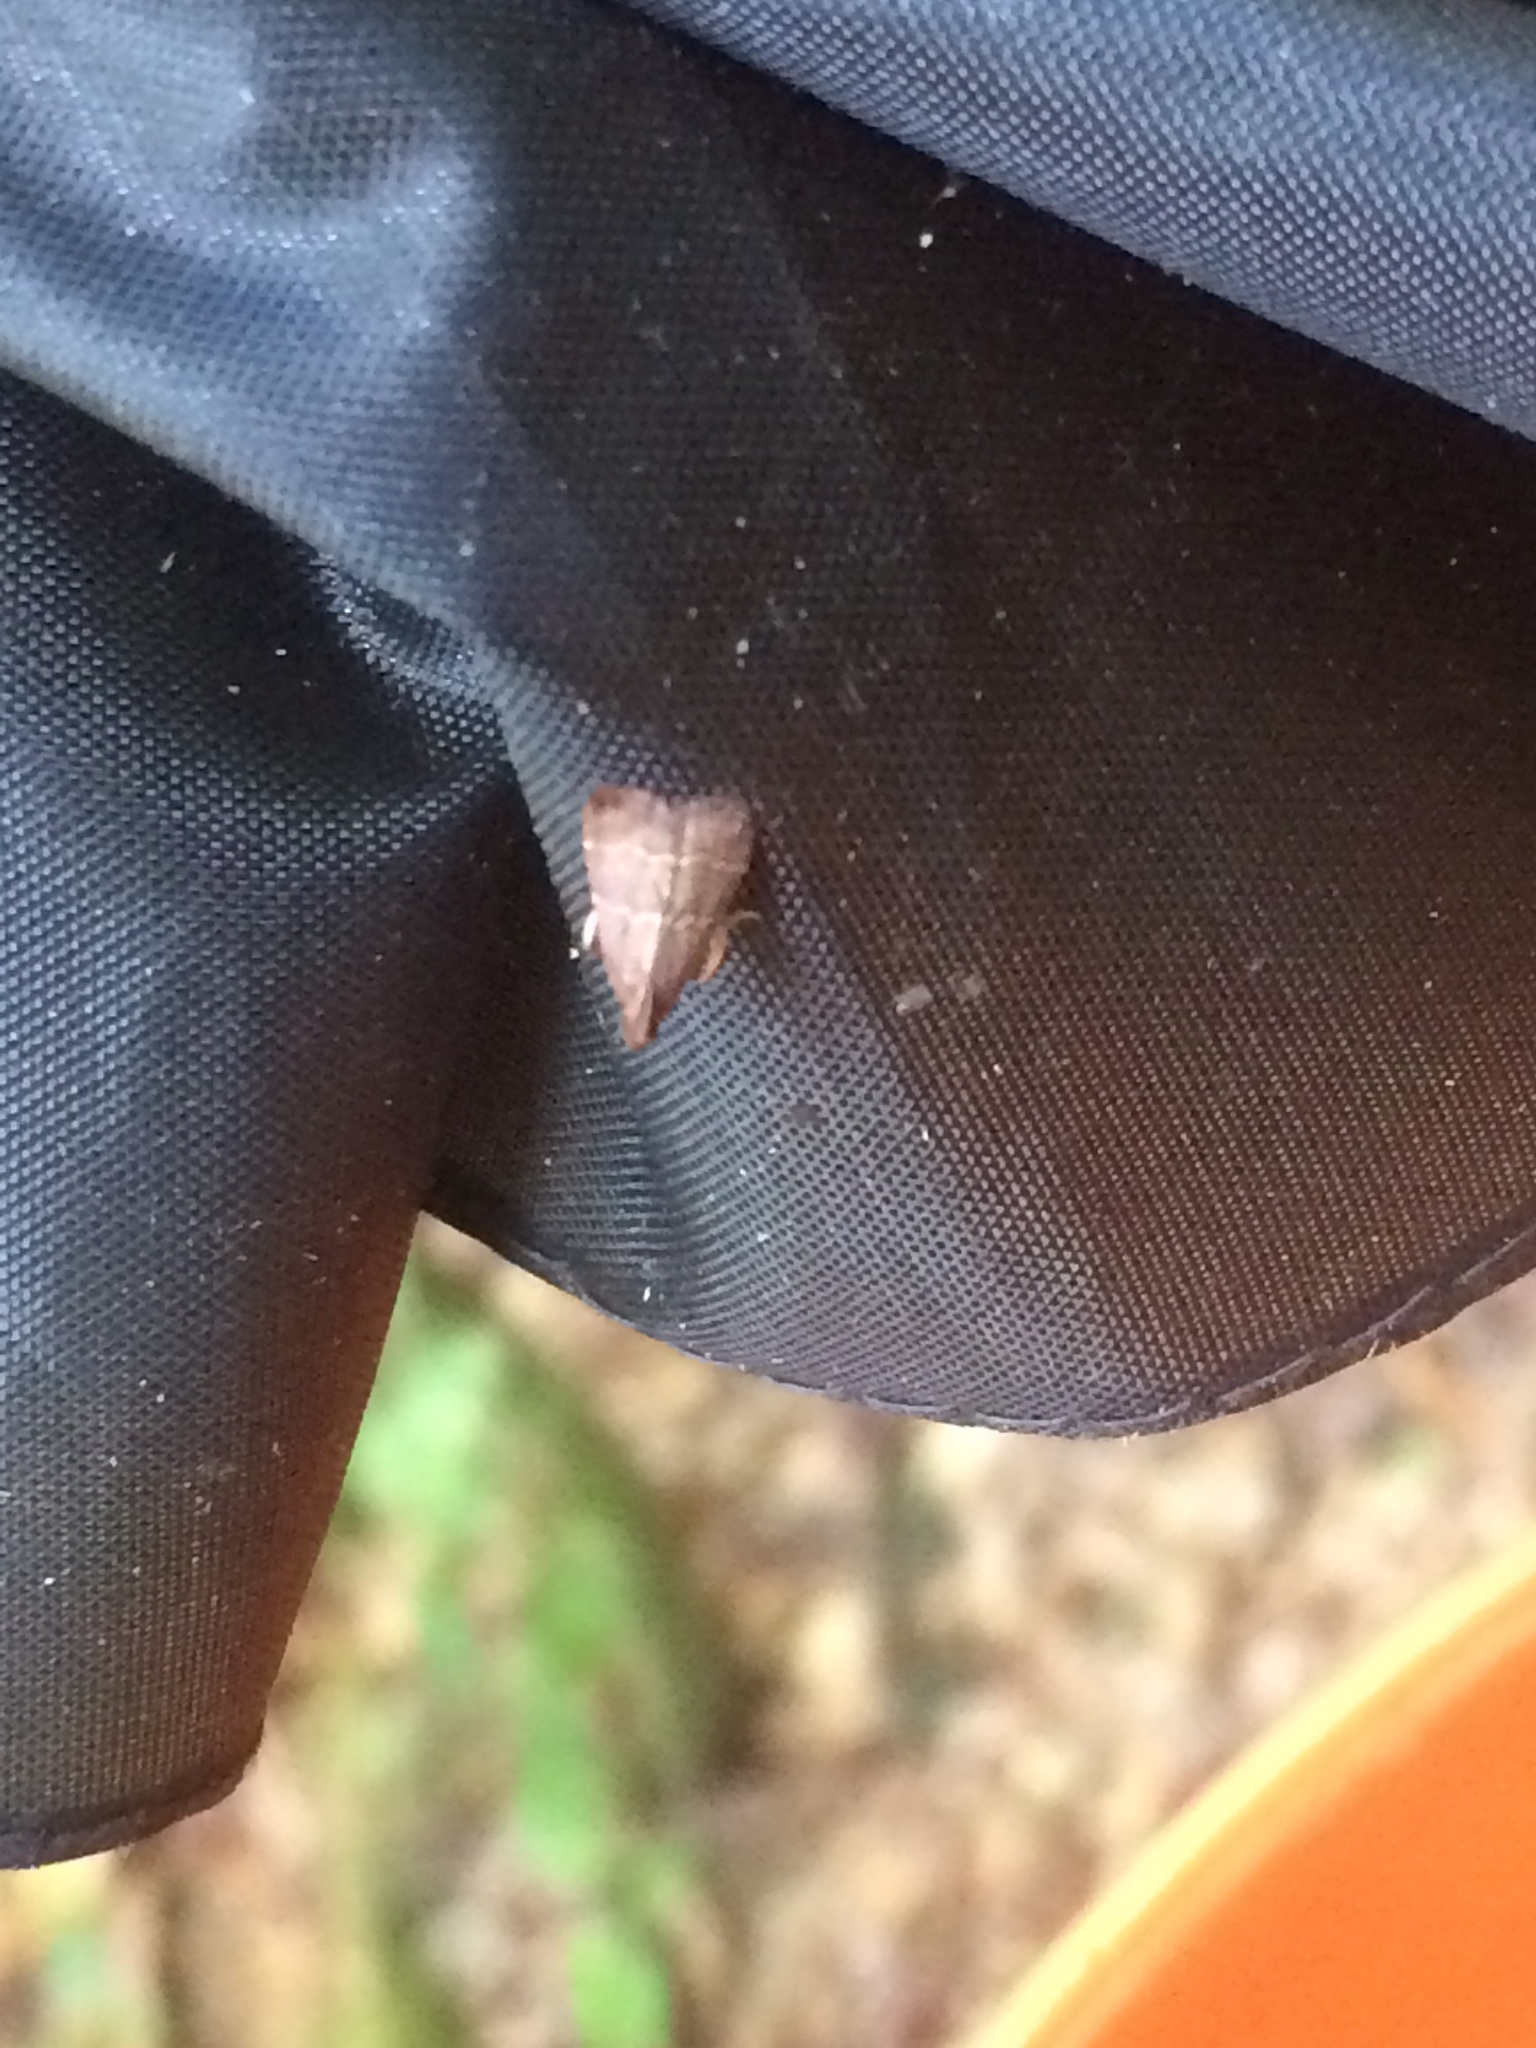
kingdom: Animalia
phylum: Arthropoda
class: Insecta
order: Lepidoptera
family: Pyralidae
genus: Arta
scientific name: Arta
